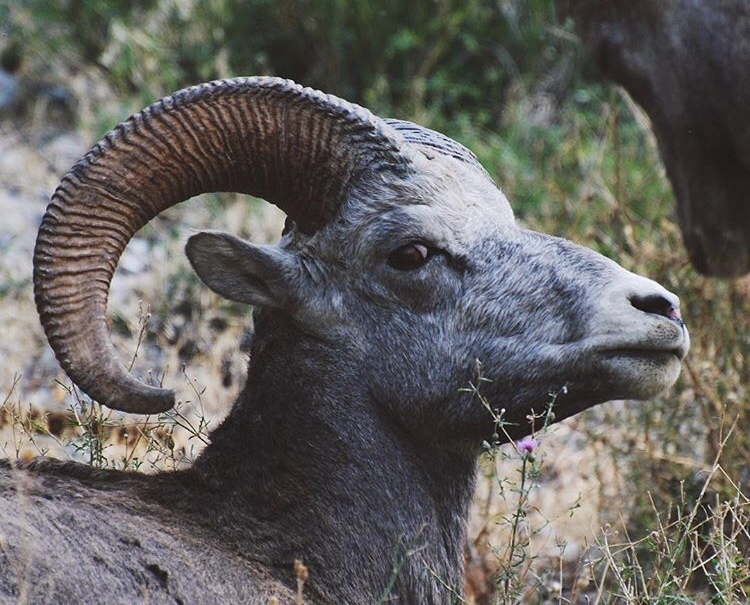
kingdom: Animalia
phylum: Chordata
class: Mammalia
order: Artiodactyla
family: Bovidae
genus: Ovis
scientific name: Ovis canadensis
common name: Bighorn sheep
